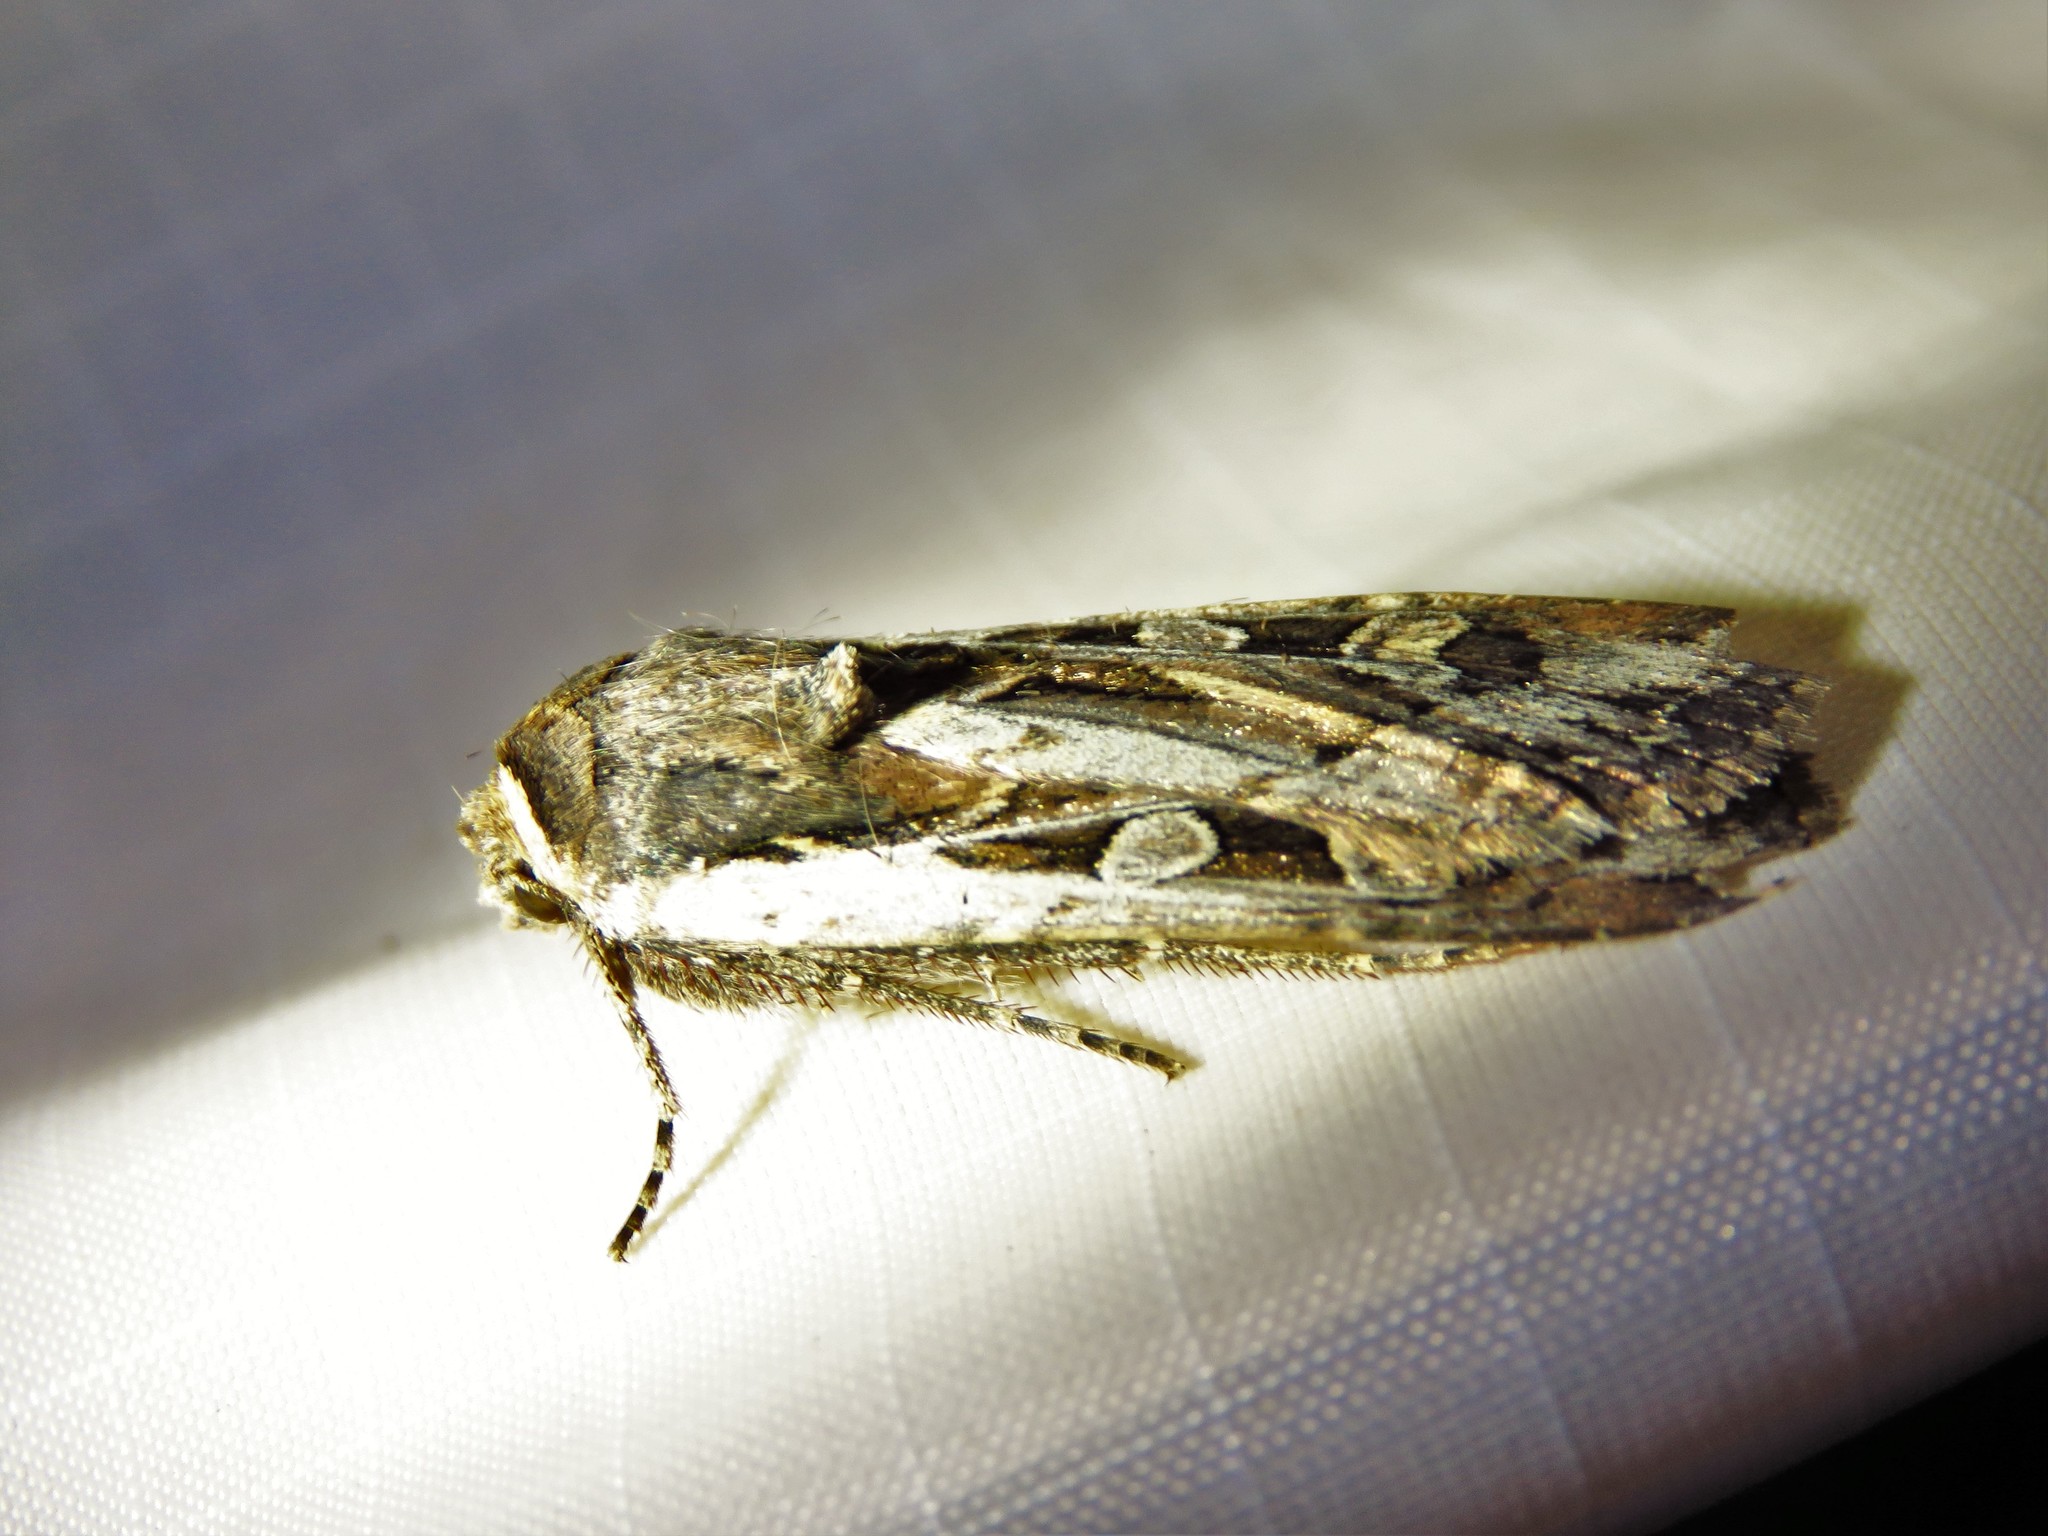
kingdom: Animalia
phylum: Arthropoda
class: Insecta
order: Lepidoptera
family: Noctuidae
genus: Euxoa
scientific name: Euxoa auxiliaris
